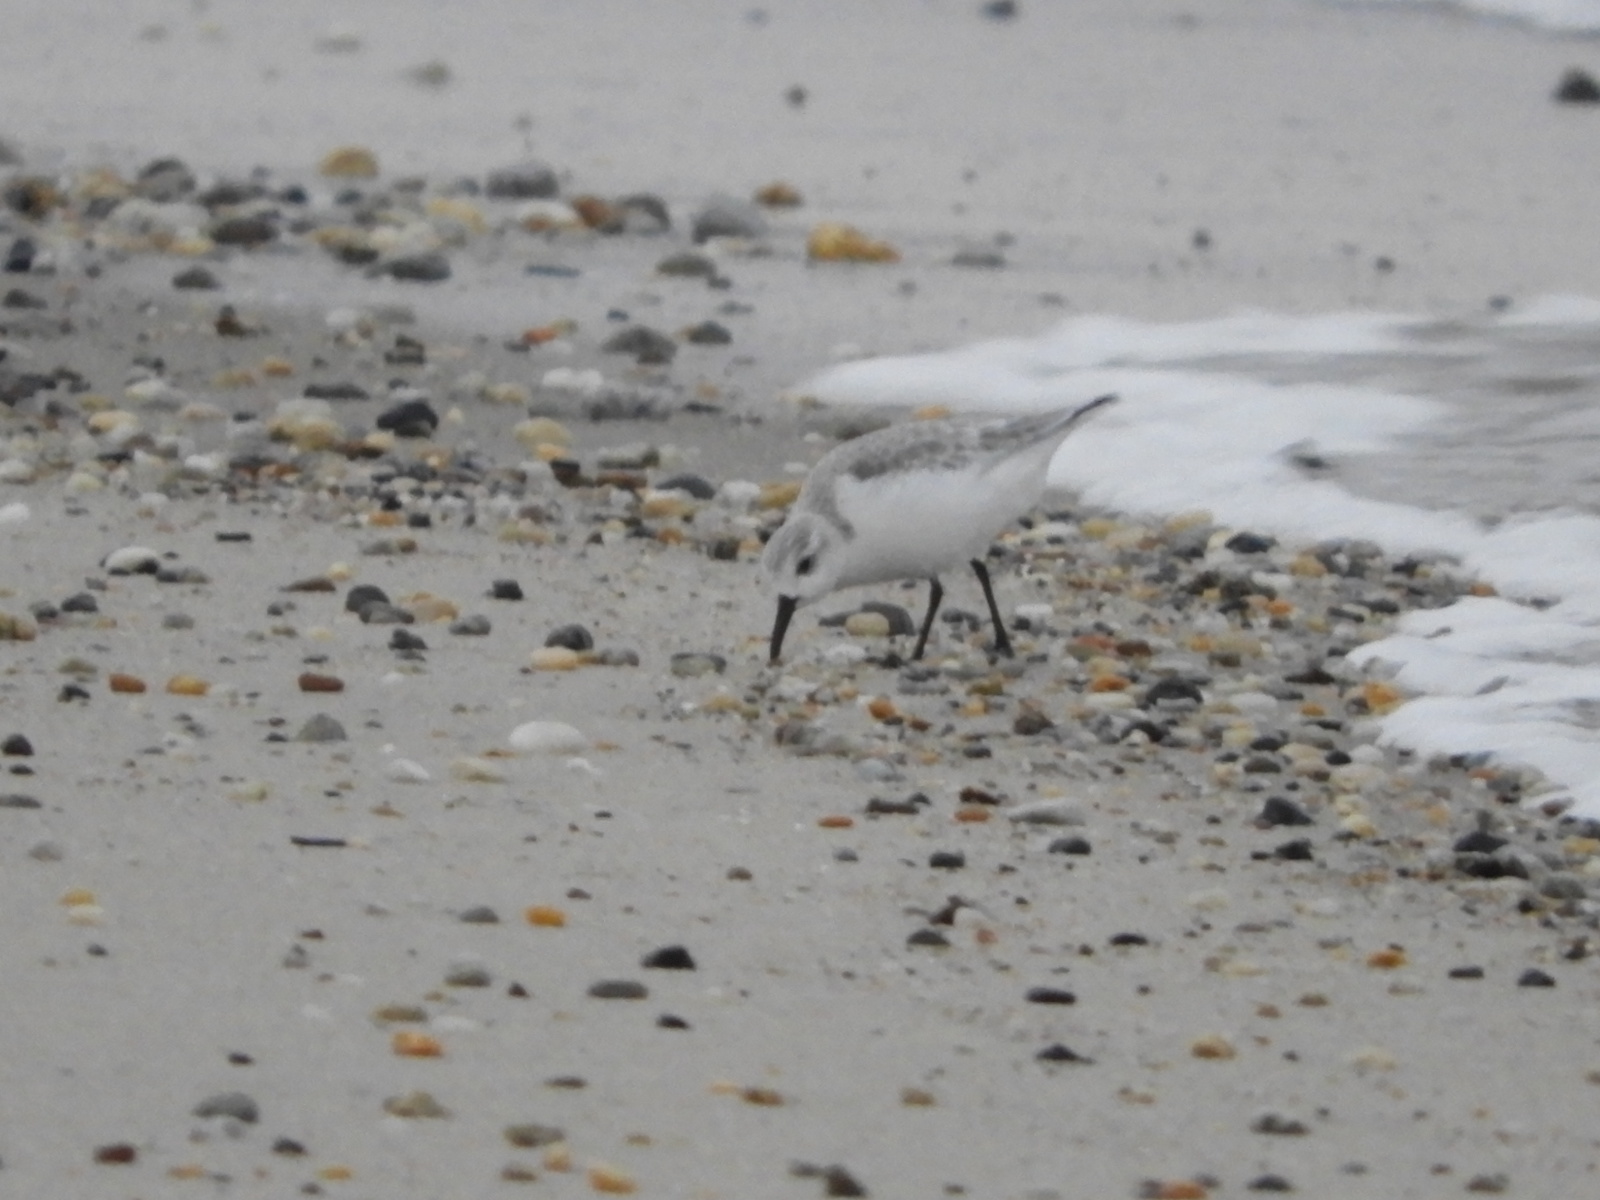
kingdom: Animalia
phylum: Chordata
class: Aves
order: Charadriiformes
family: Scolopacidae
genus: Calidris
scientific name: Calidris alba
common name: Sanderling
